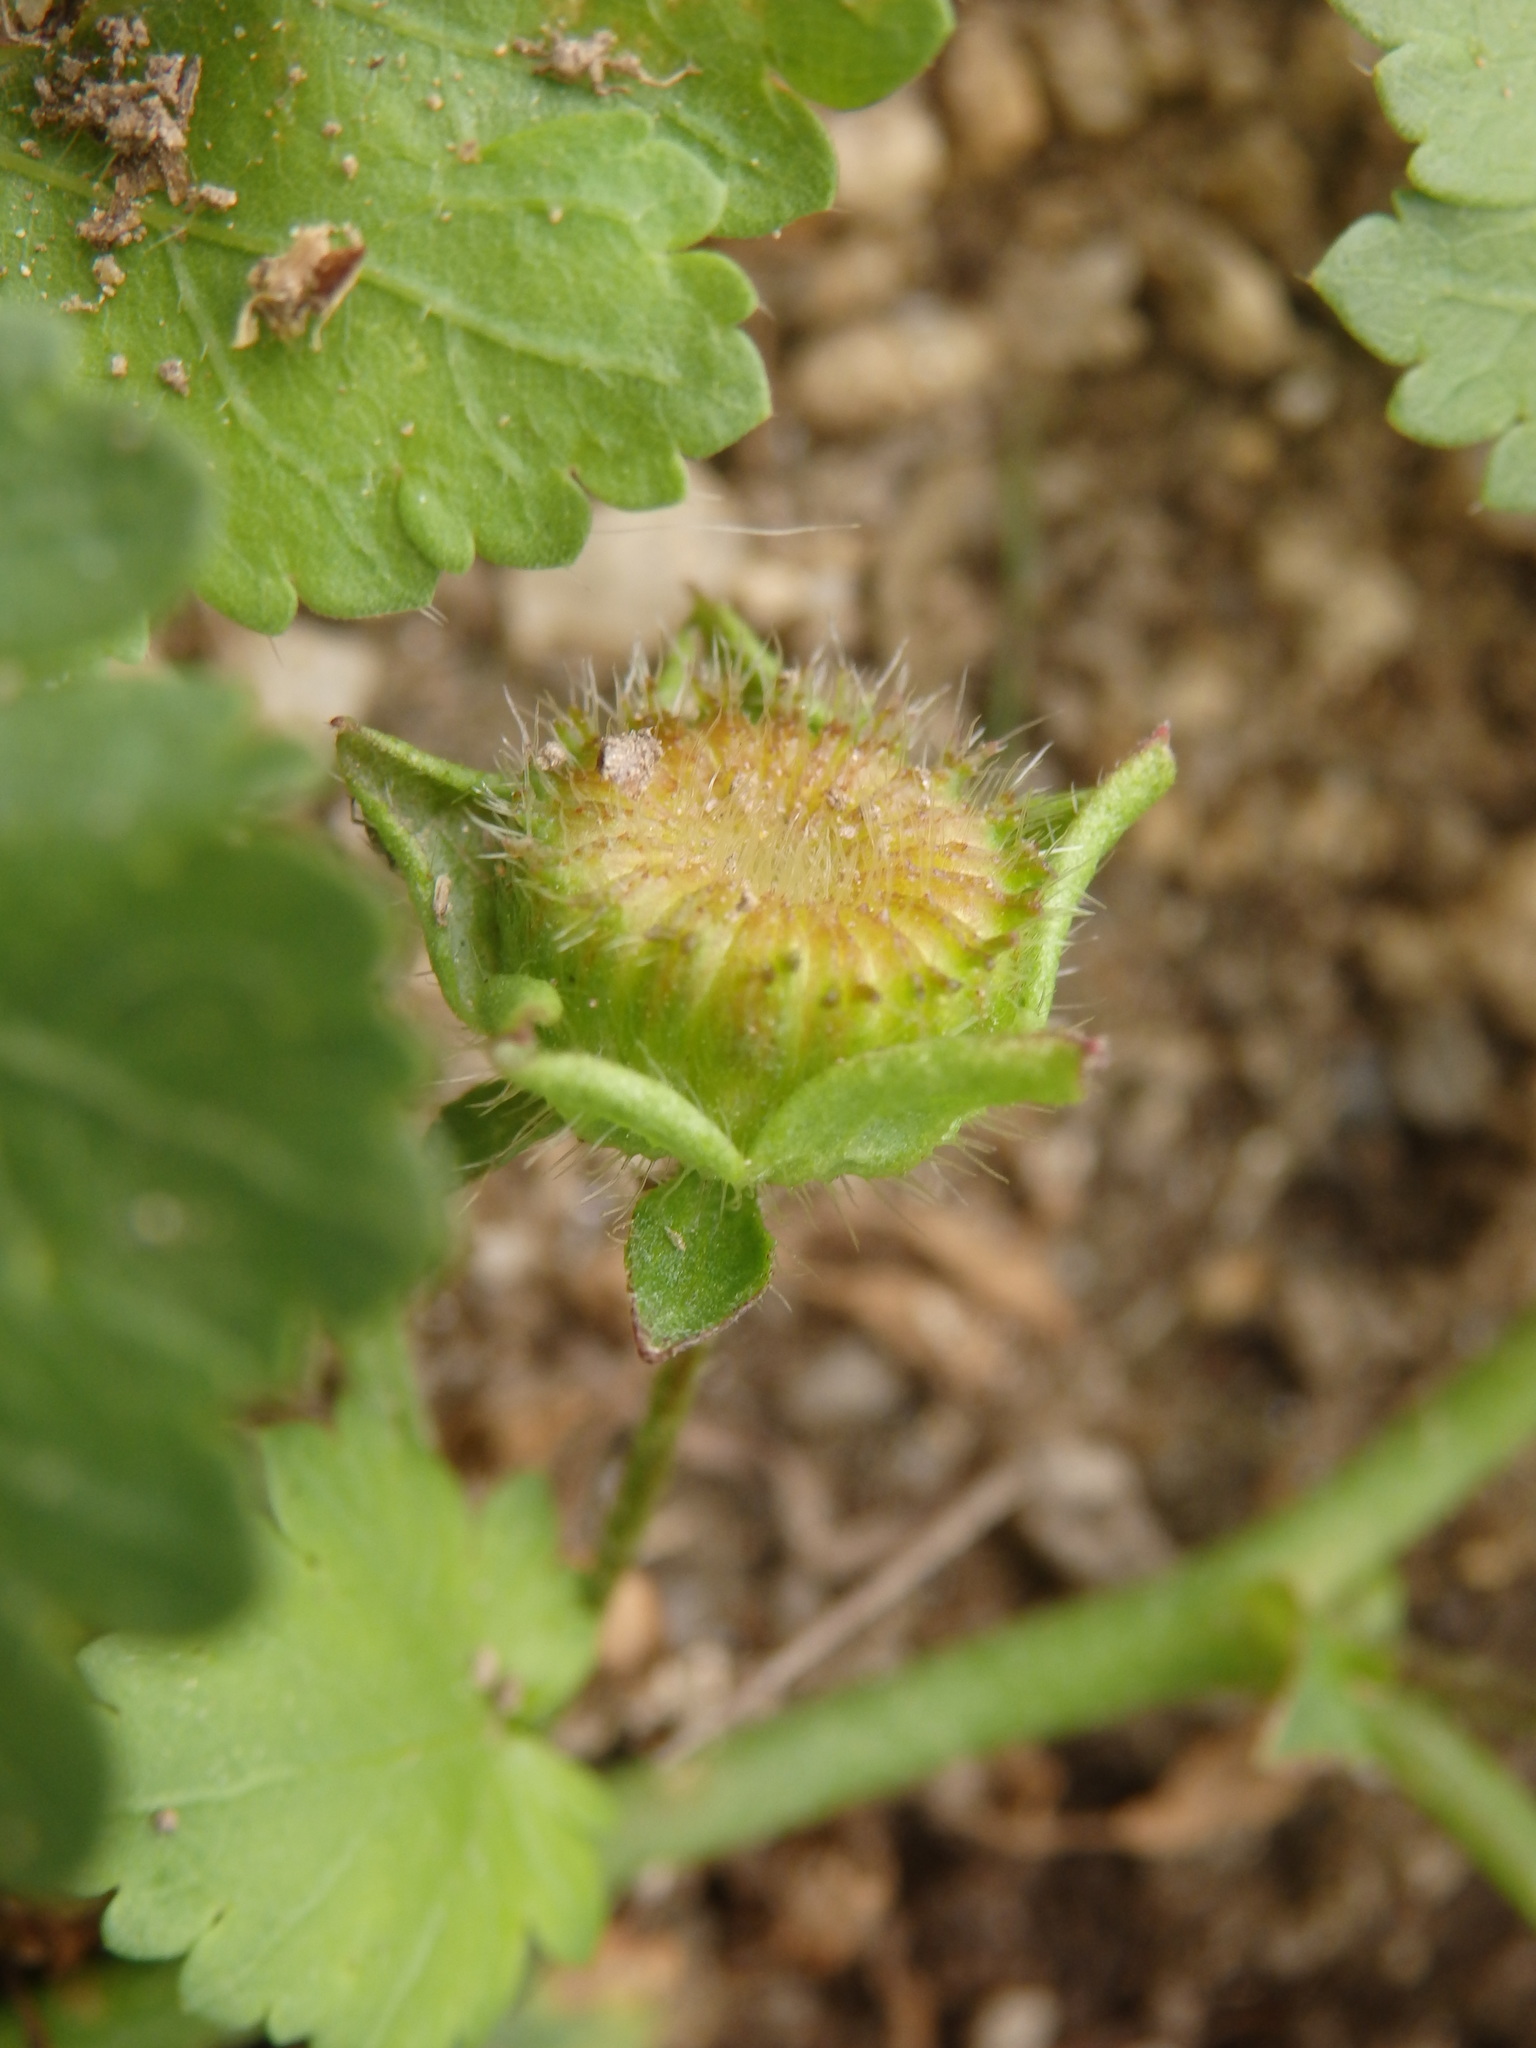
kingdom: Plantae
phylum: Tracheophyta
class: Magnoliopsida
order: Malvales
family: Malvaceae
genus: Modiola
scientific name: Modiola caroliniana
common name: Carolina bristlemallow
